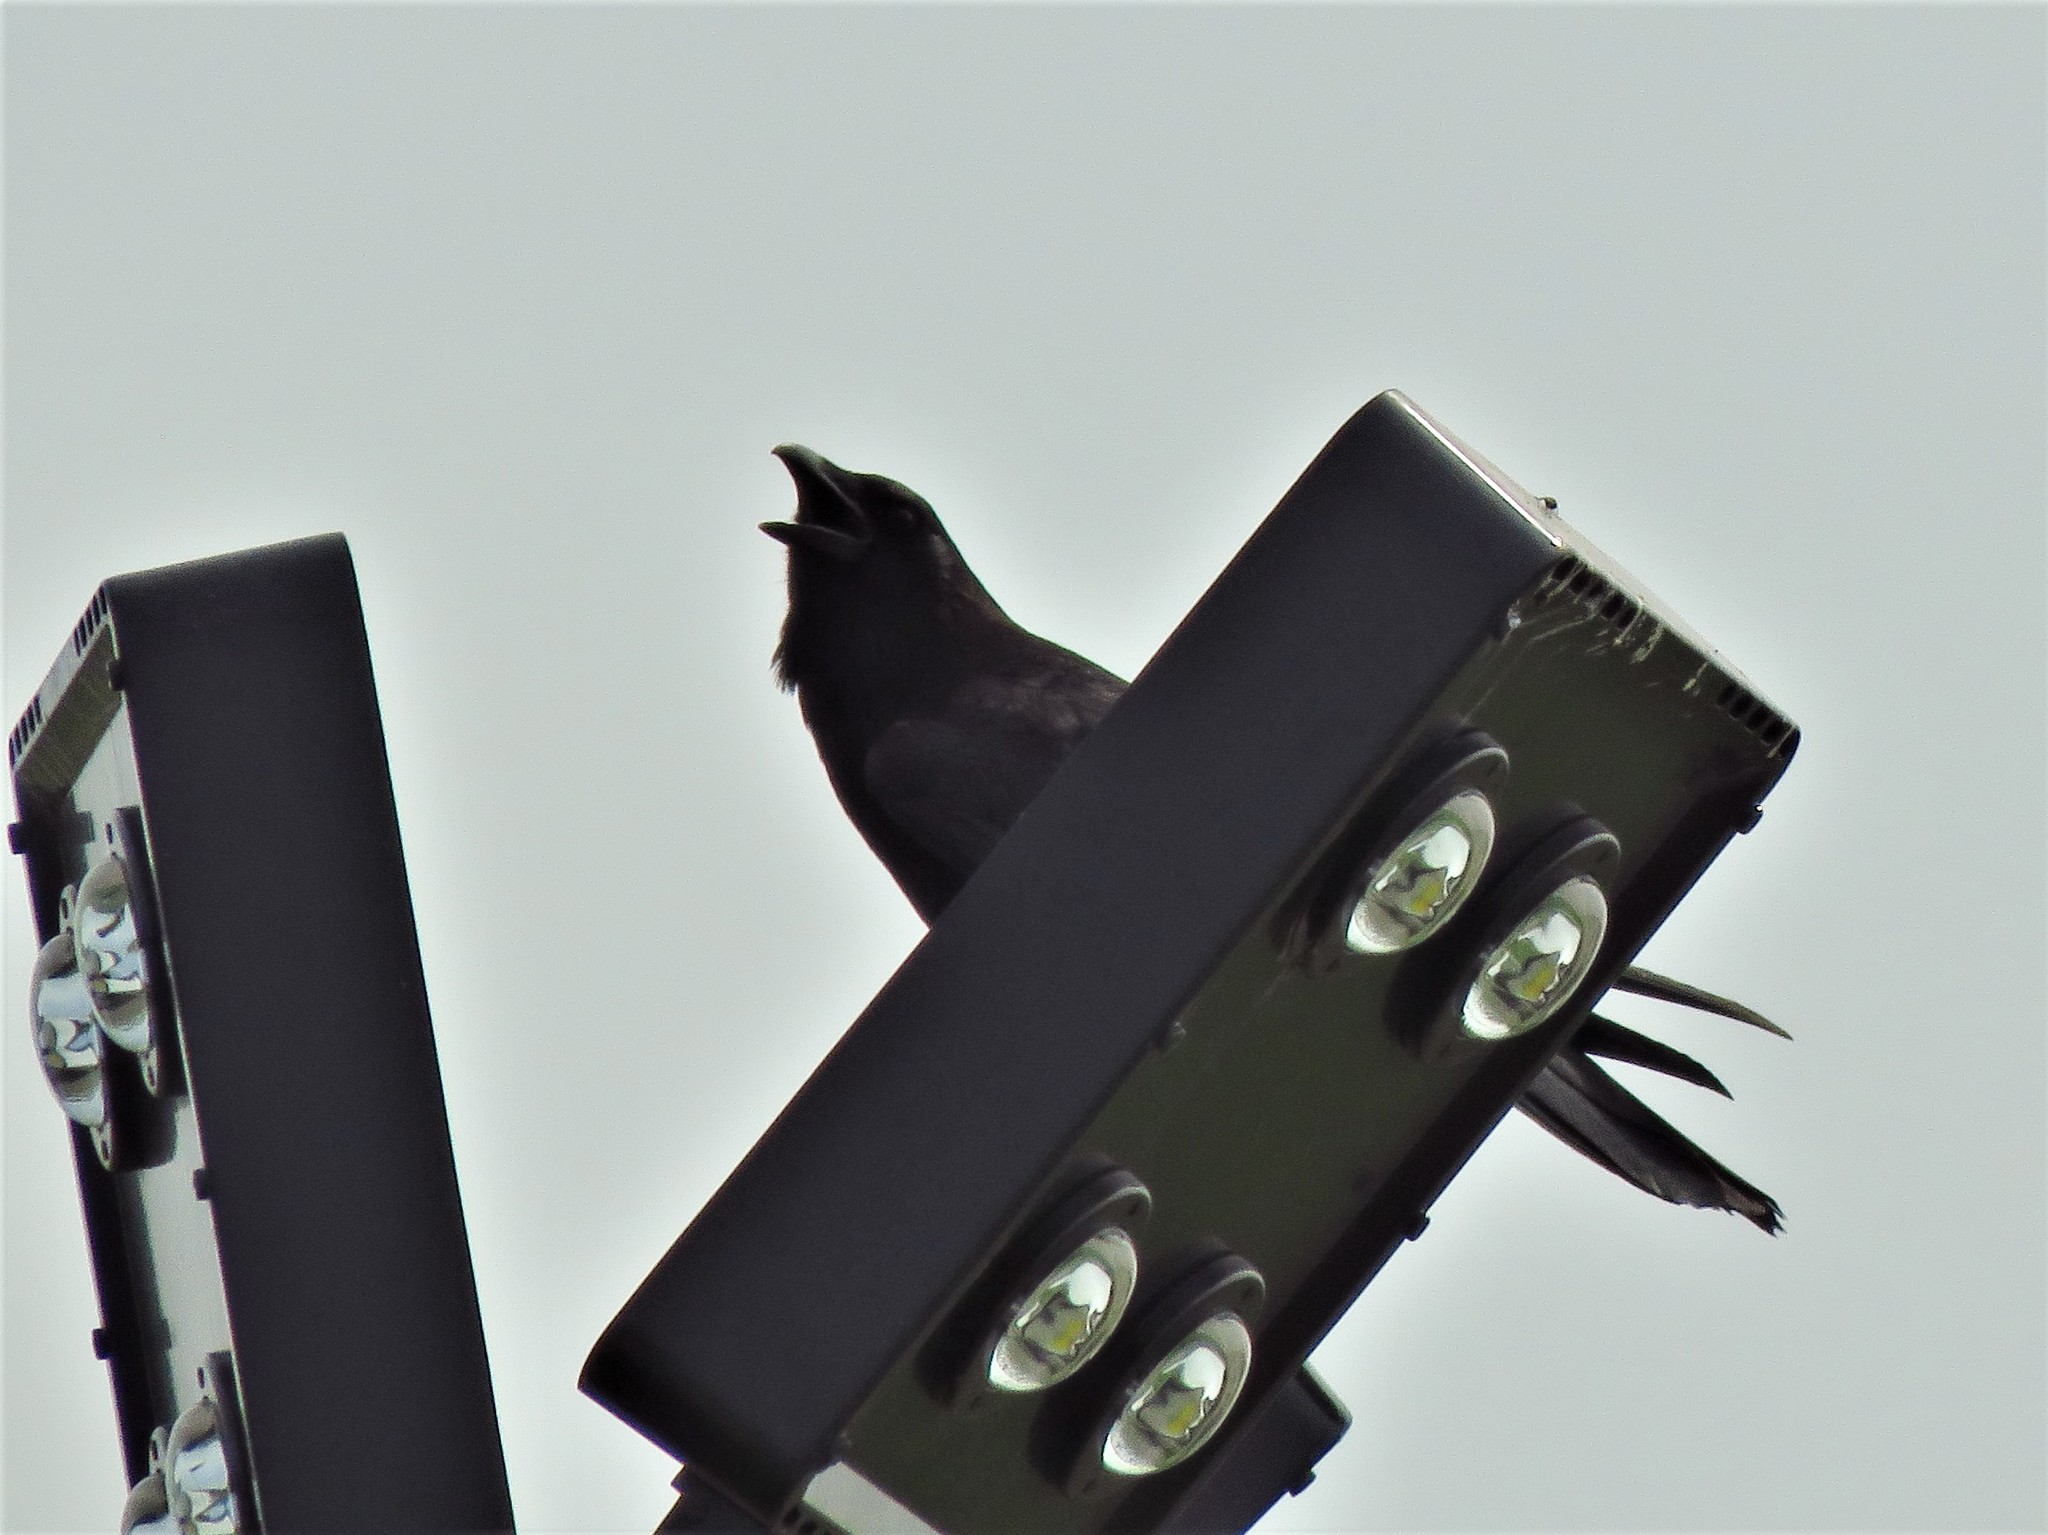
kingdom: Animalia
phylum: Chordata
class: Aves
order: Passeriformes
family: Corvidae
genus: Corvus
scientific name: Corvus brachyrhynchos
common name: American crow
